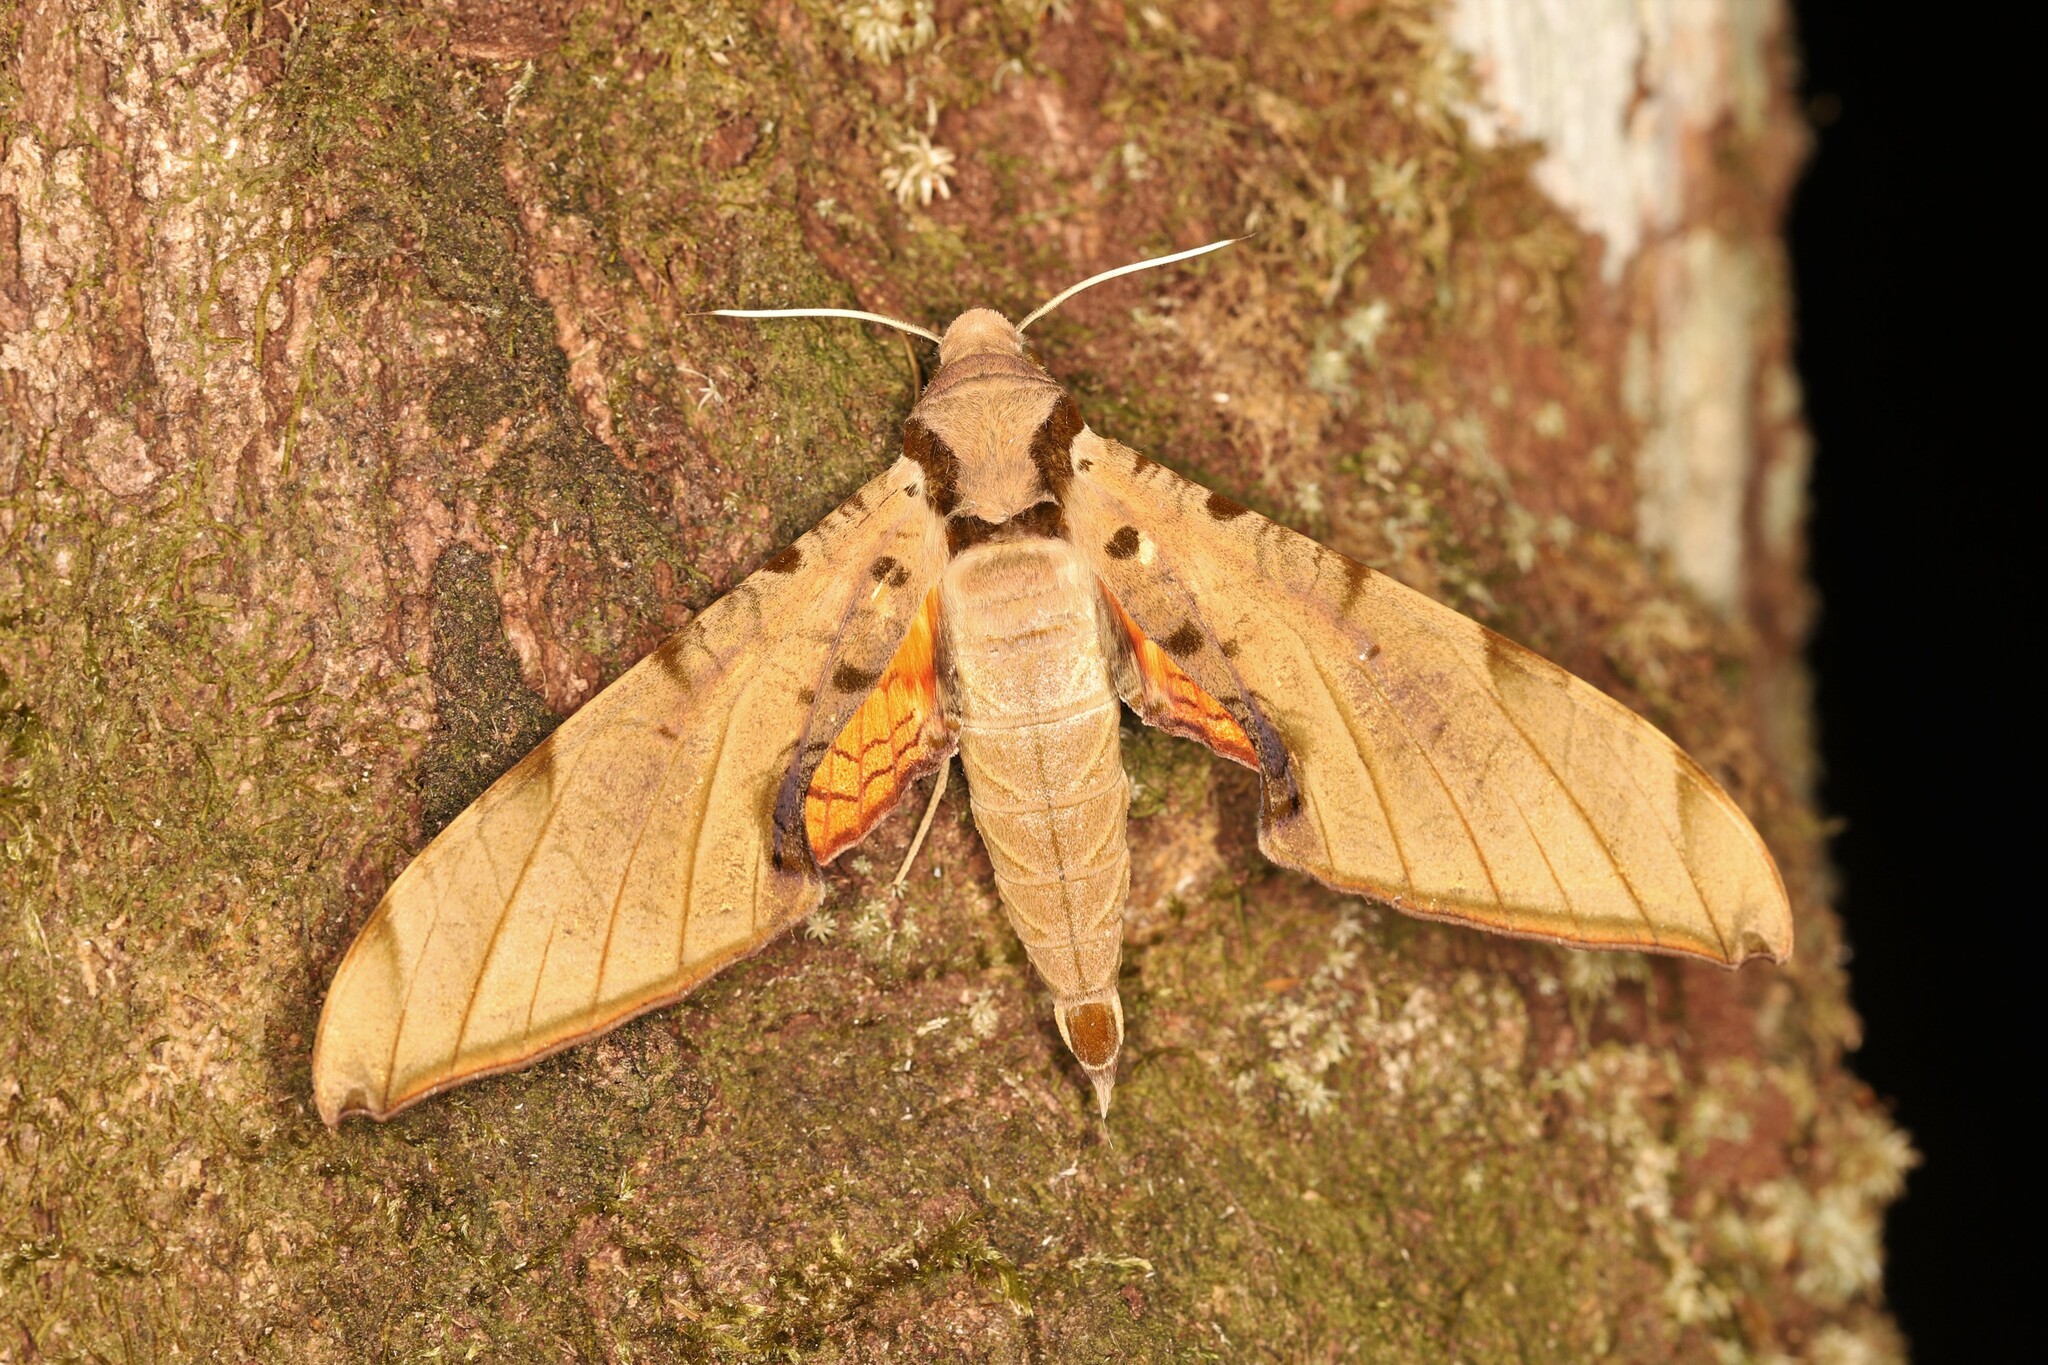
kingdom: Animalia
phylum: Arthropoda
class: Insecta
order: Lepidoptera
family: Sphingidae
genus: Protambulyx
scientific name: Protambulyx strigilis
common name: Streaked sphinx
